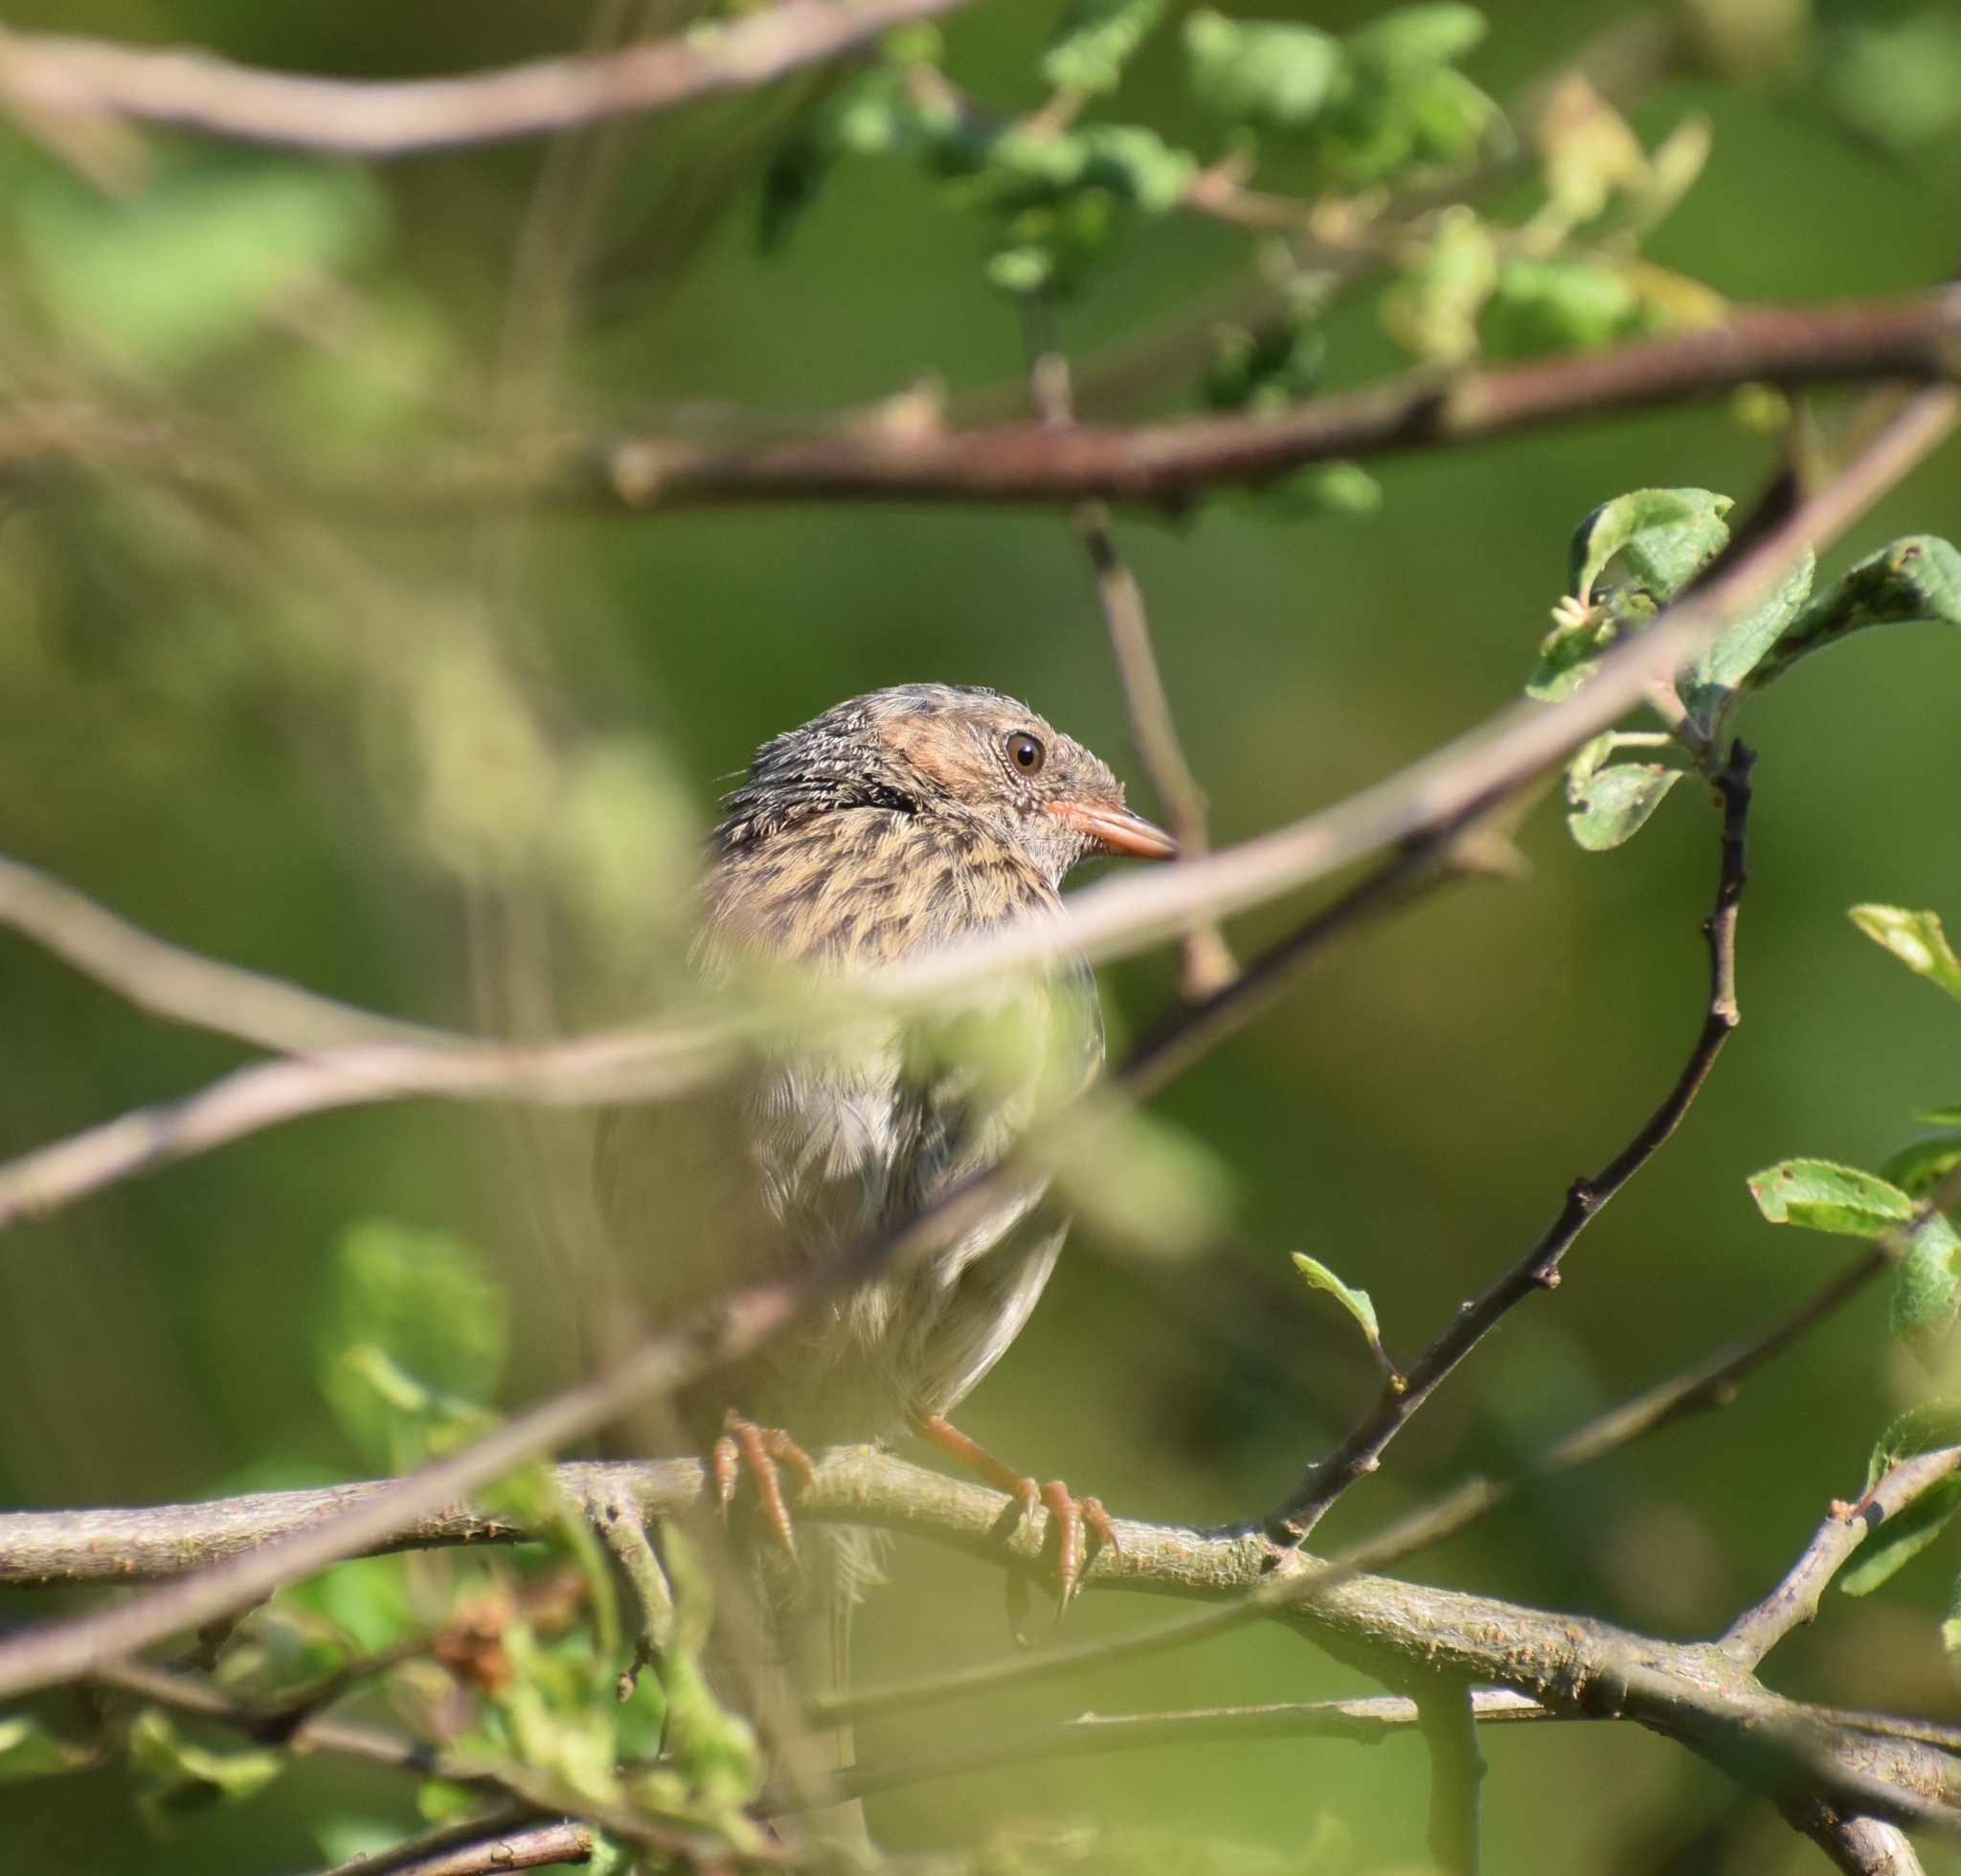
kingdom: Animalia
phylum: Chordata
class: Aves
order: Passeriformes
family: Prunellidae
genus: Prunella
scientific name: Prunella modularis
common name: Dunnock
